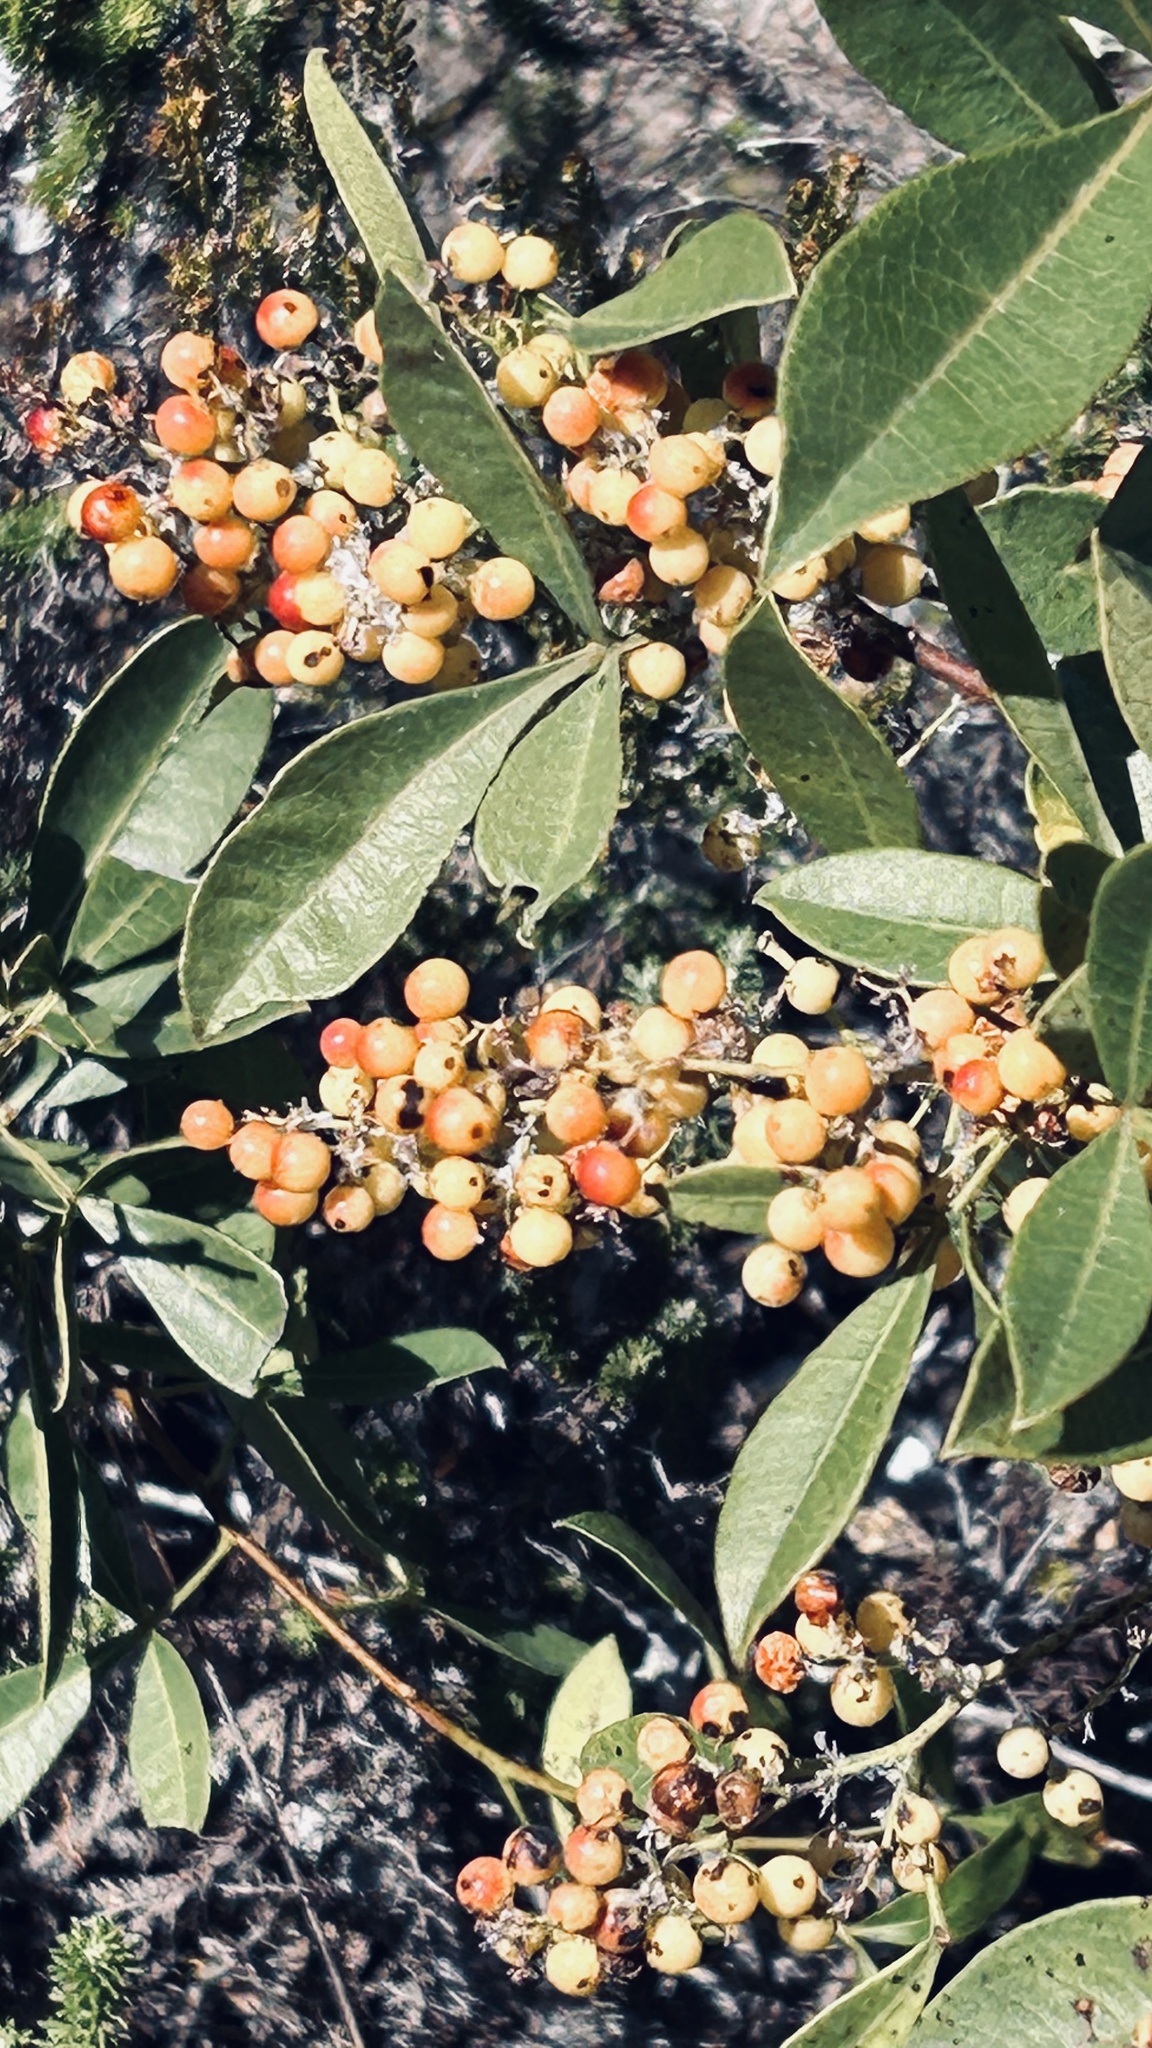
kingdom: Plantae
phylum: Tracheophyta
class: Magnoliopsida
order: Sapindales
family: Anacardiaceae
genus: Searsia
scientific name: Searsia laevigata
